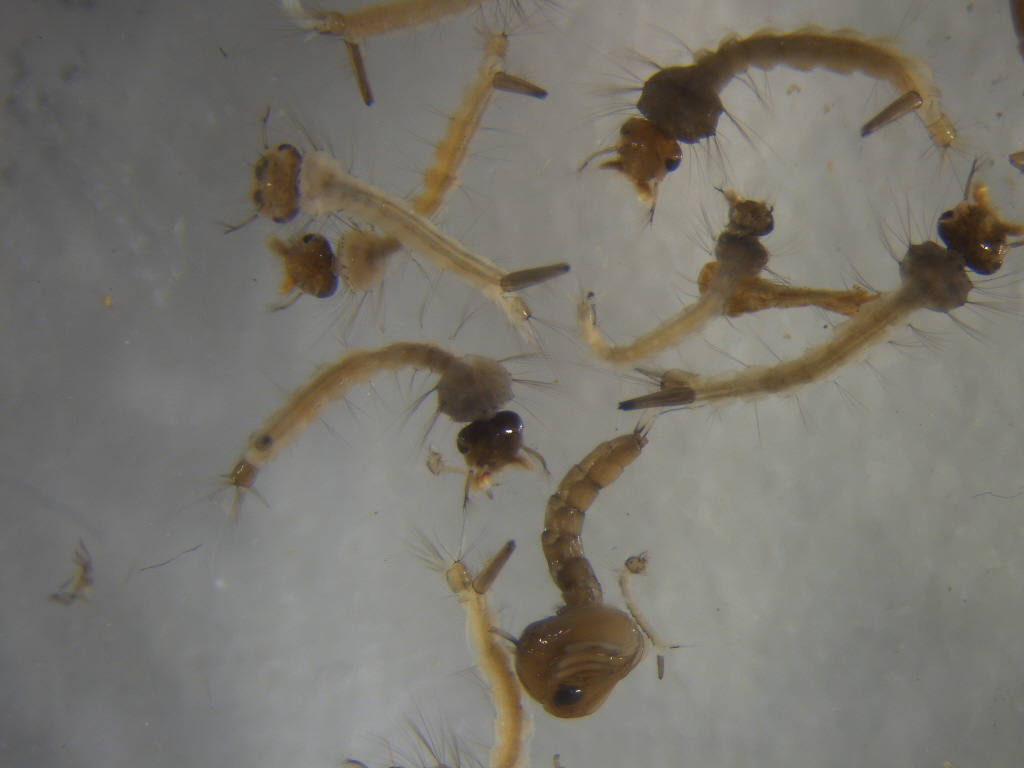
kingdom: Animalia
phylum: Arthropoda
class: Insecta
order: Diptera
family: Culicidae
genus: Culex
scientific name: Culex pervigilans
